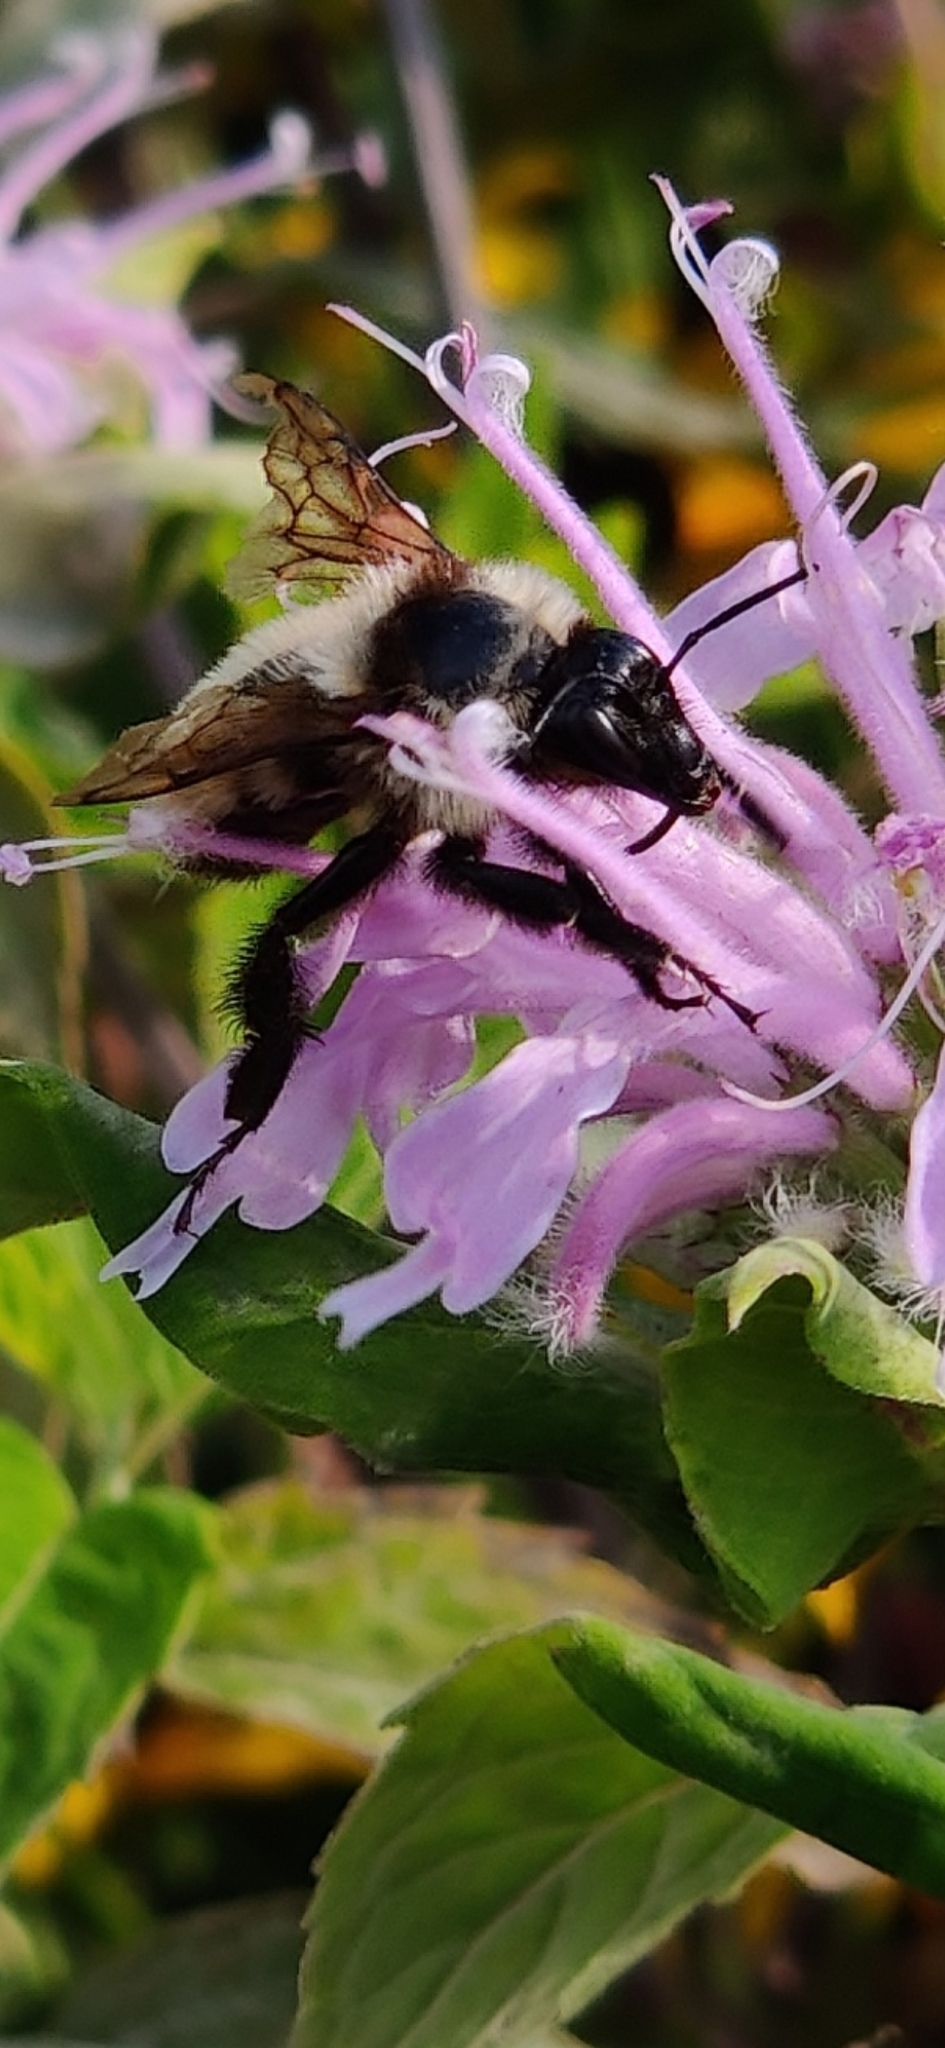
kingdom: Animalia
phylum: Arthropoda
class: Insecta
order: Hymenoptera
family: Apidae
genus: Bombus
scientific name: Bombus fervidus
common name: Yellow bumble bee
